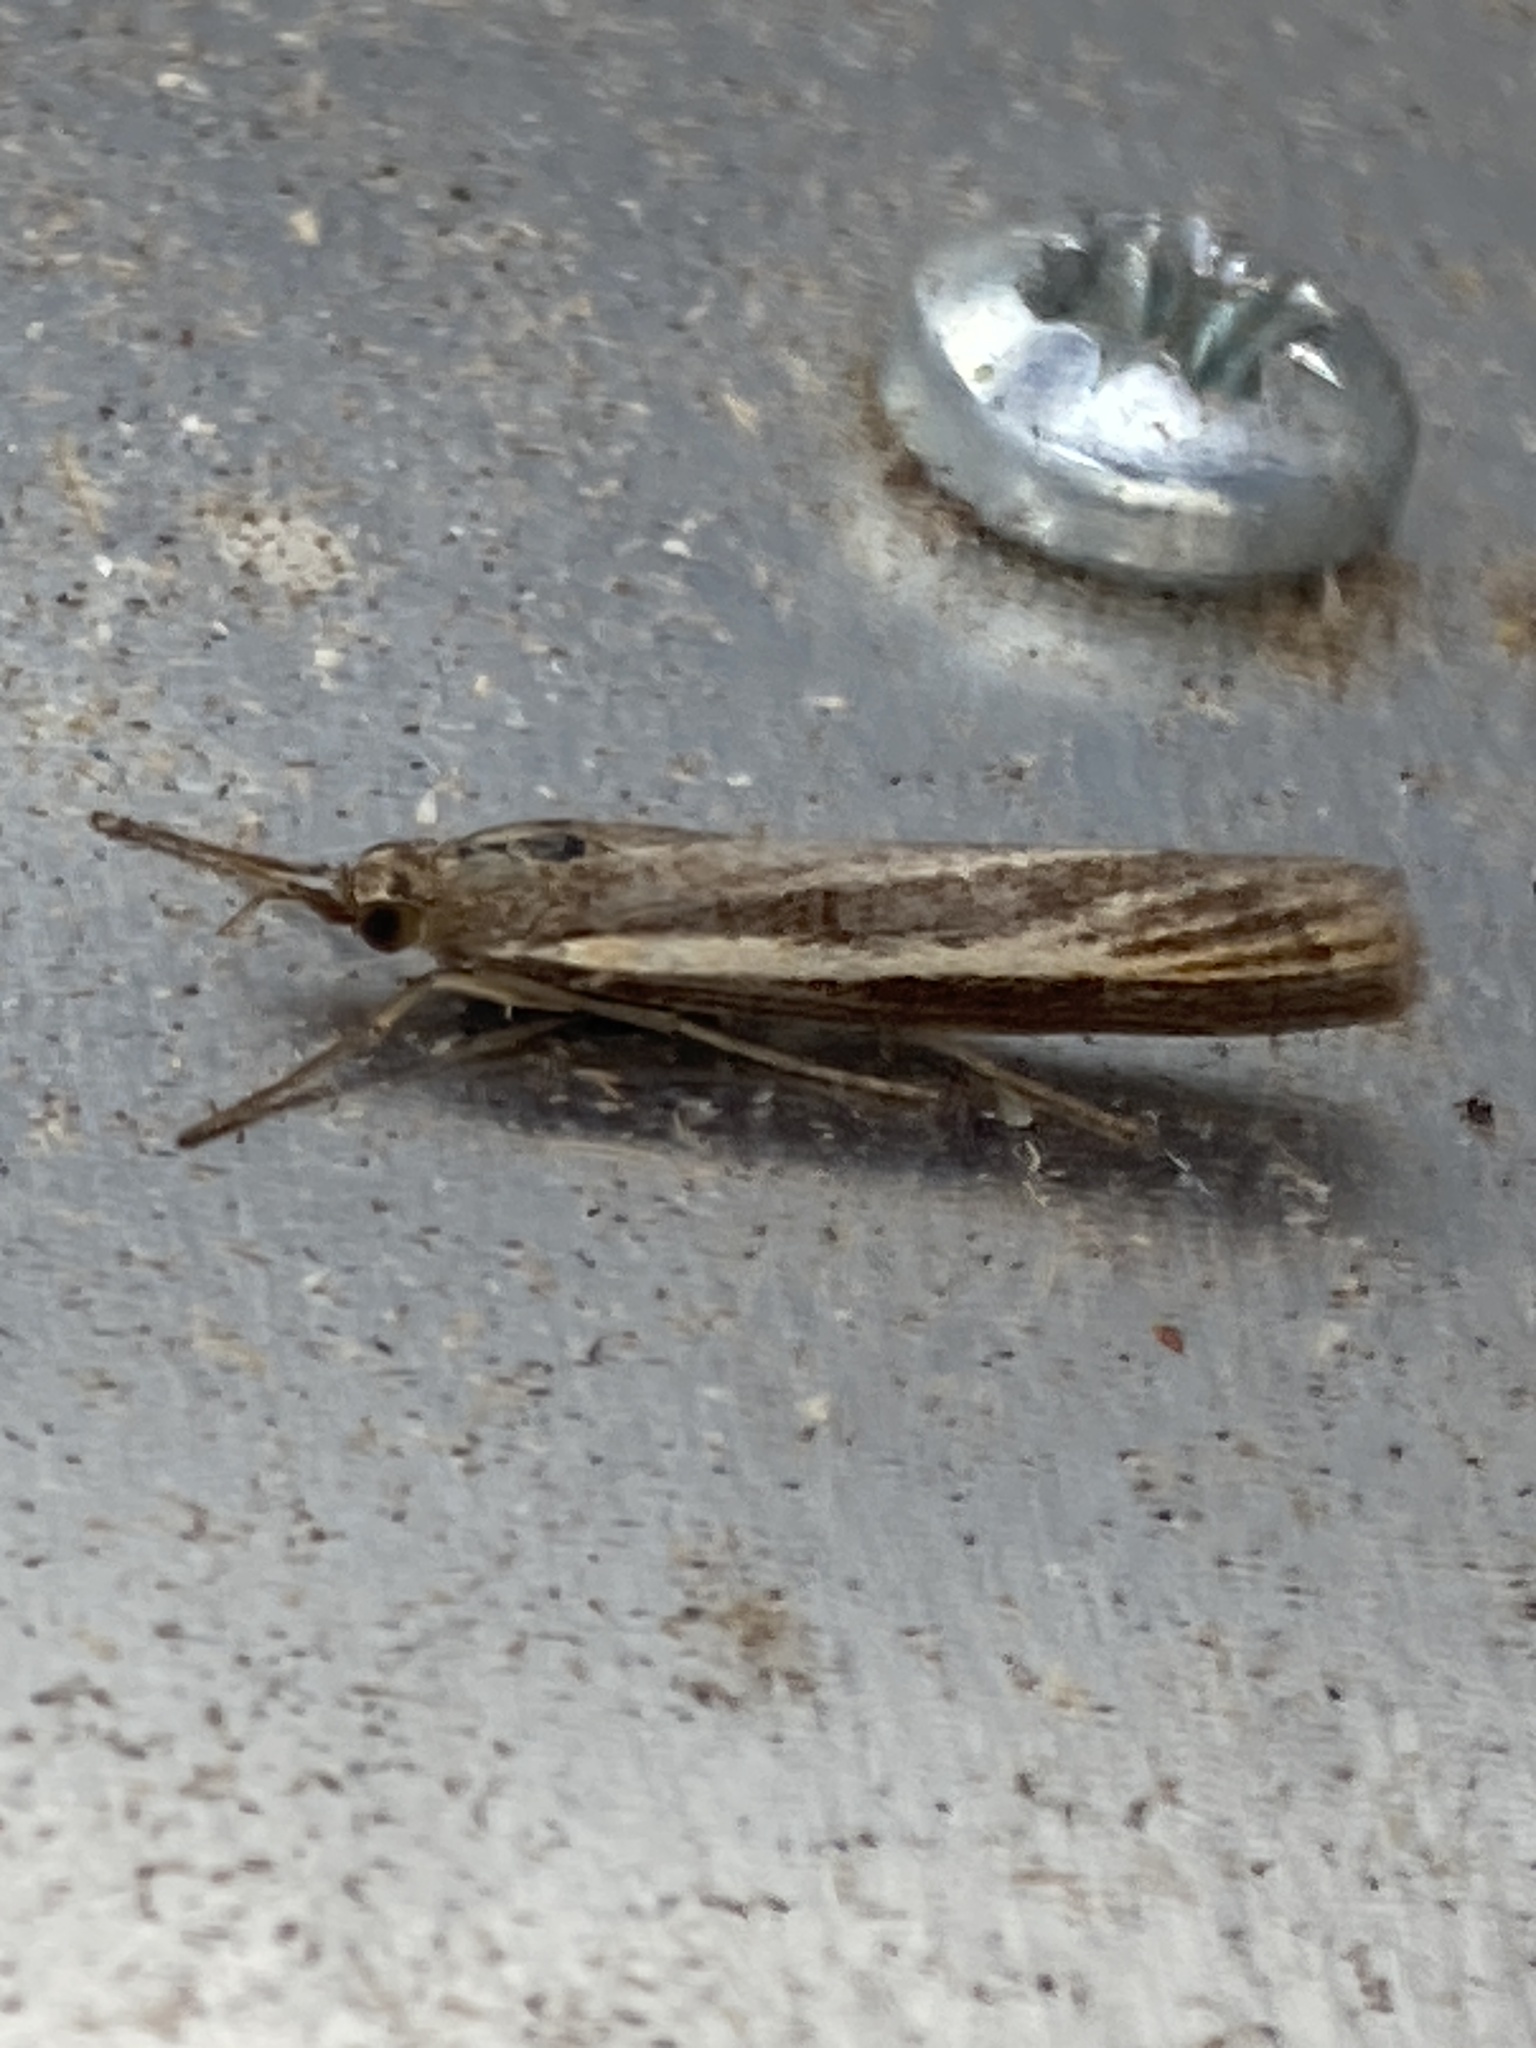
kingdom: Animalia
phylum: Arthropoda
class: Insecta
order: Lepidoptera
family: Crambidae
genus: Agriphila
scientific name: Agriphila tristellus
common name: Common grass-veneer
